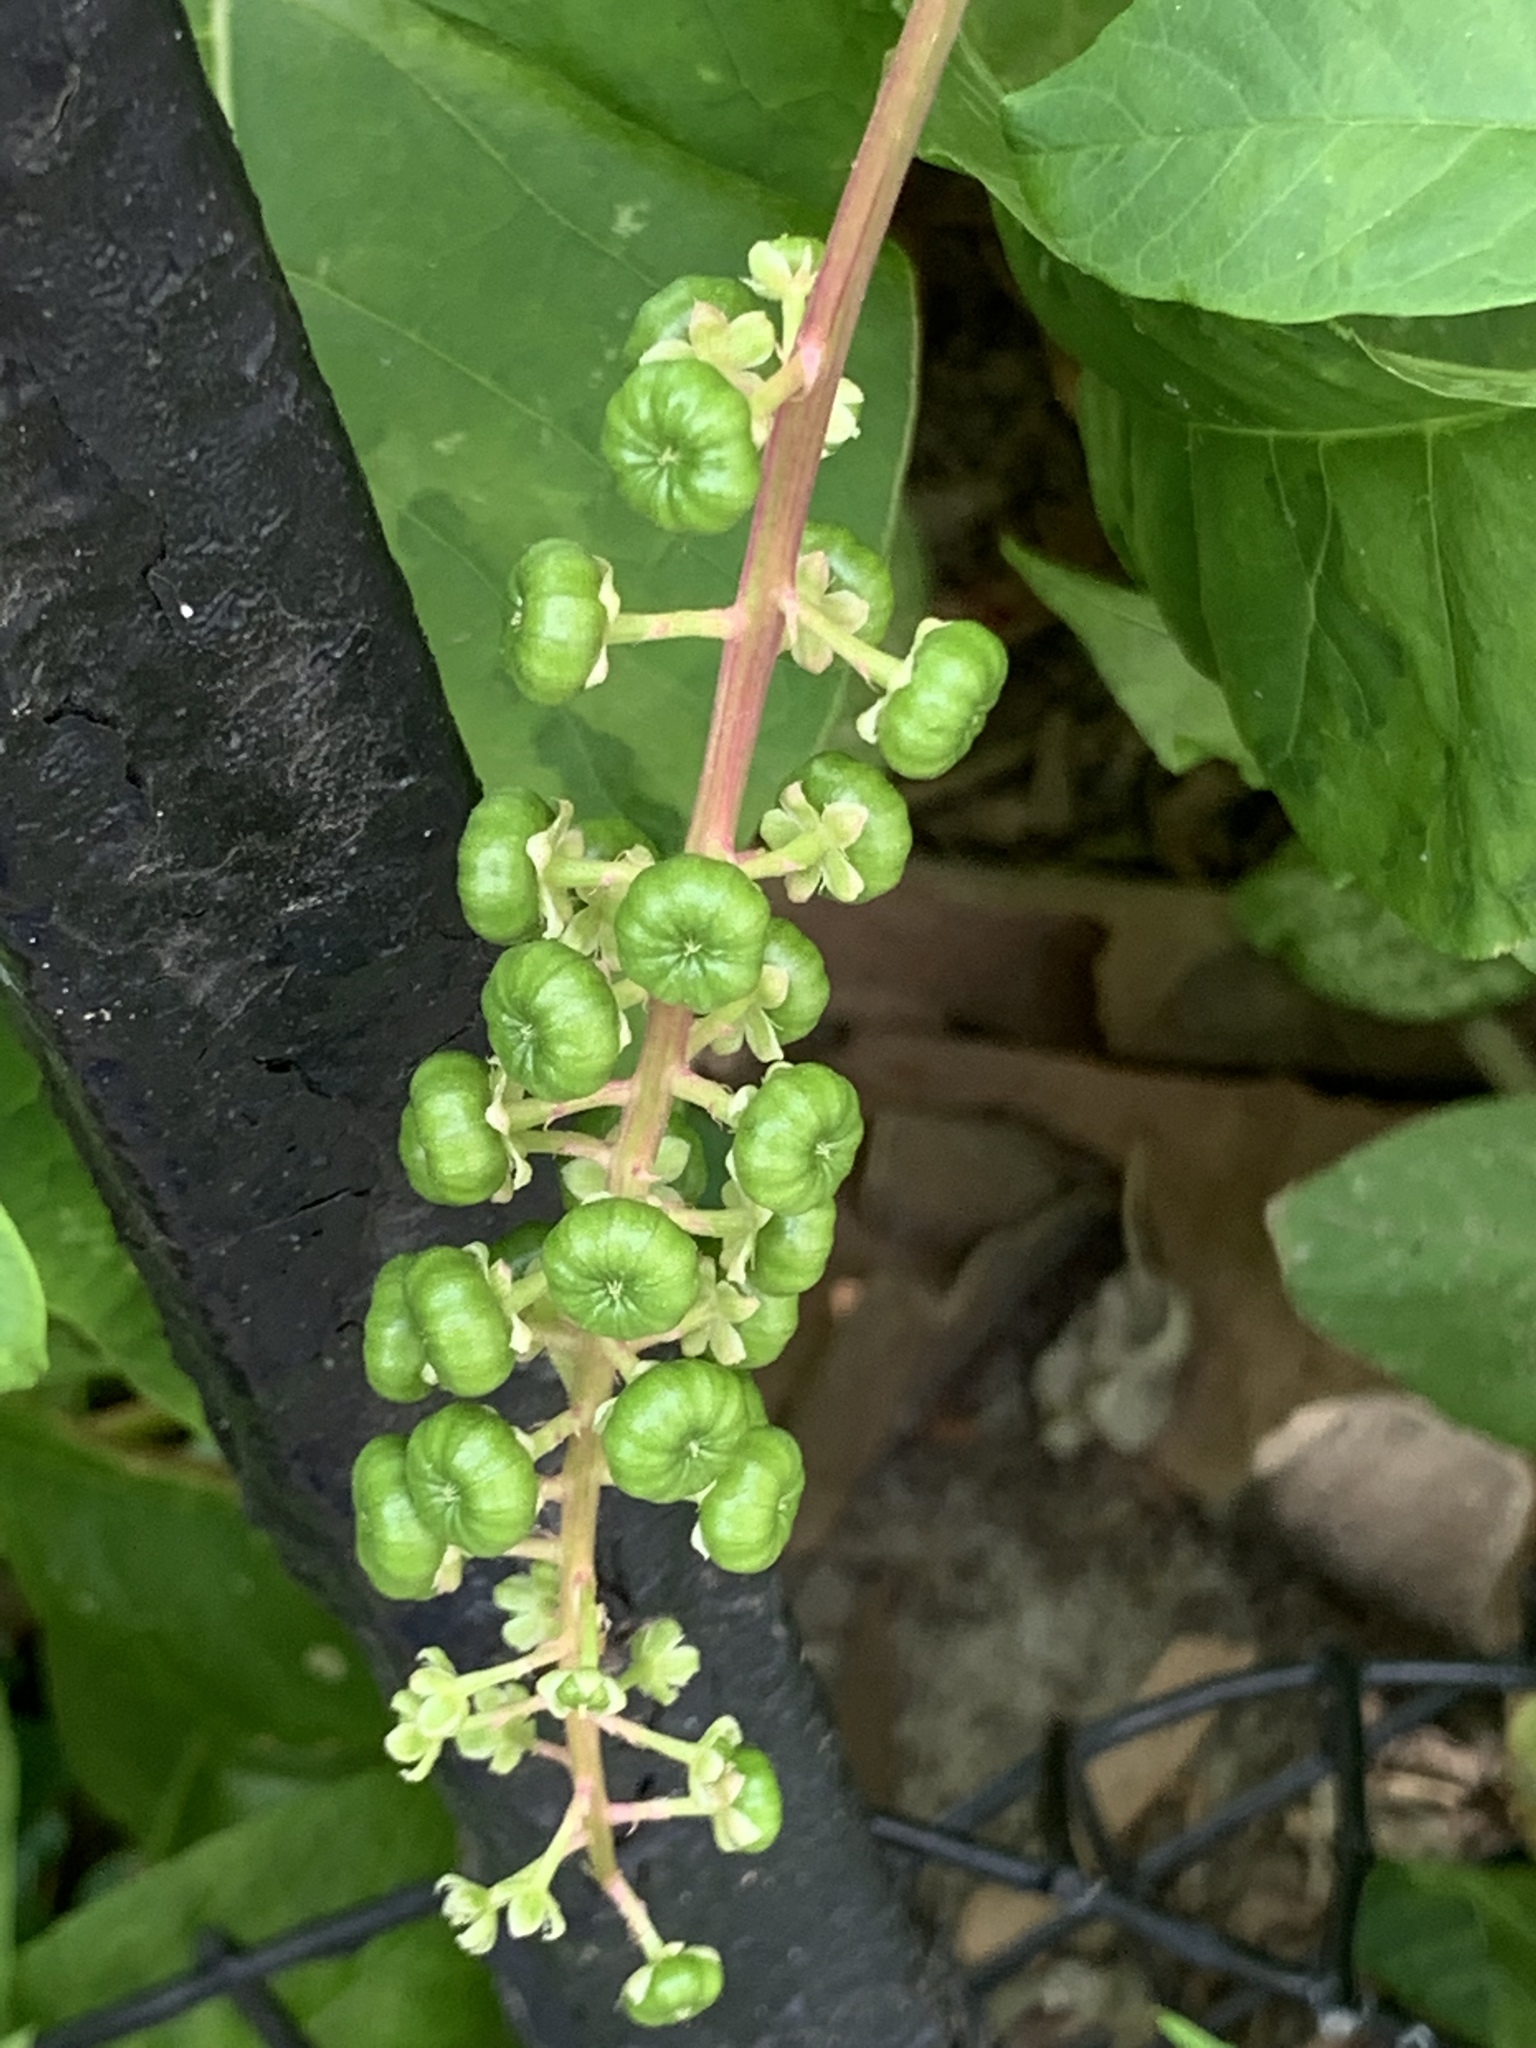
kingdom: Plantae
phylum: Tracheophyta
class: Magnoliopsida
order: Caryophyllales
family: Phytolaccaceae
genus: Phytolacca
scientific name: Phytolacca americana
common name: American pokeweed
